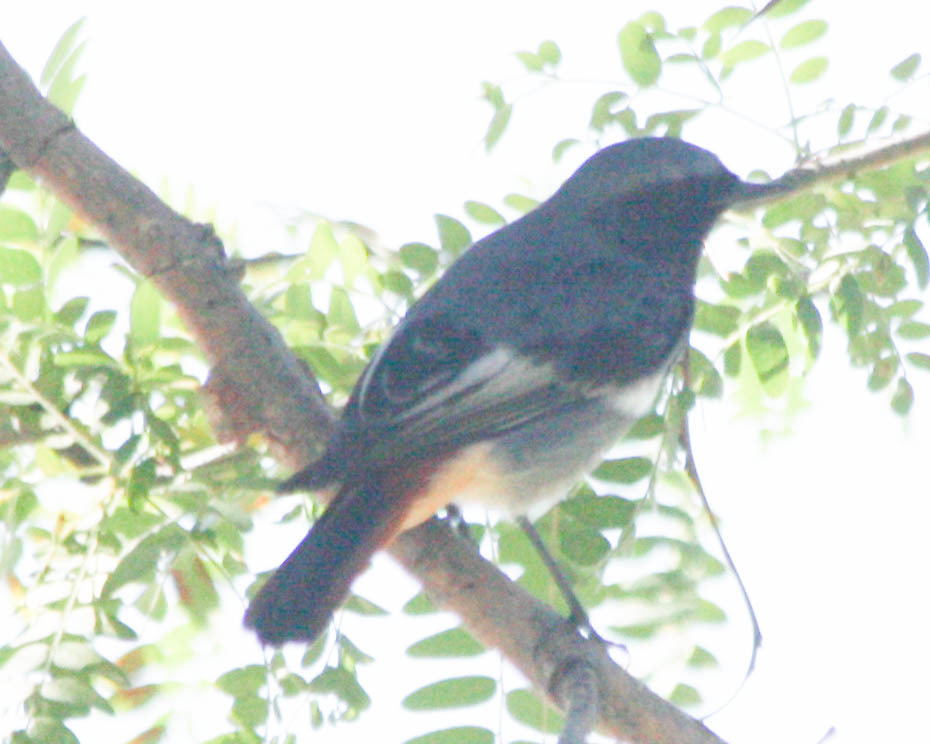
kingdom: Animalia
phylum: Chordata
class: Aves
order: Passeriformes
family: Muscicapidae
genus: Phoenicurus
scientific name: Phoenicurus ochruros
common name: Black redstart
